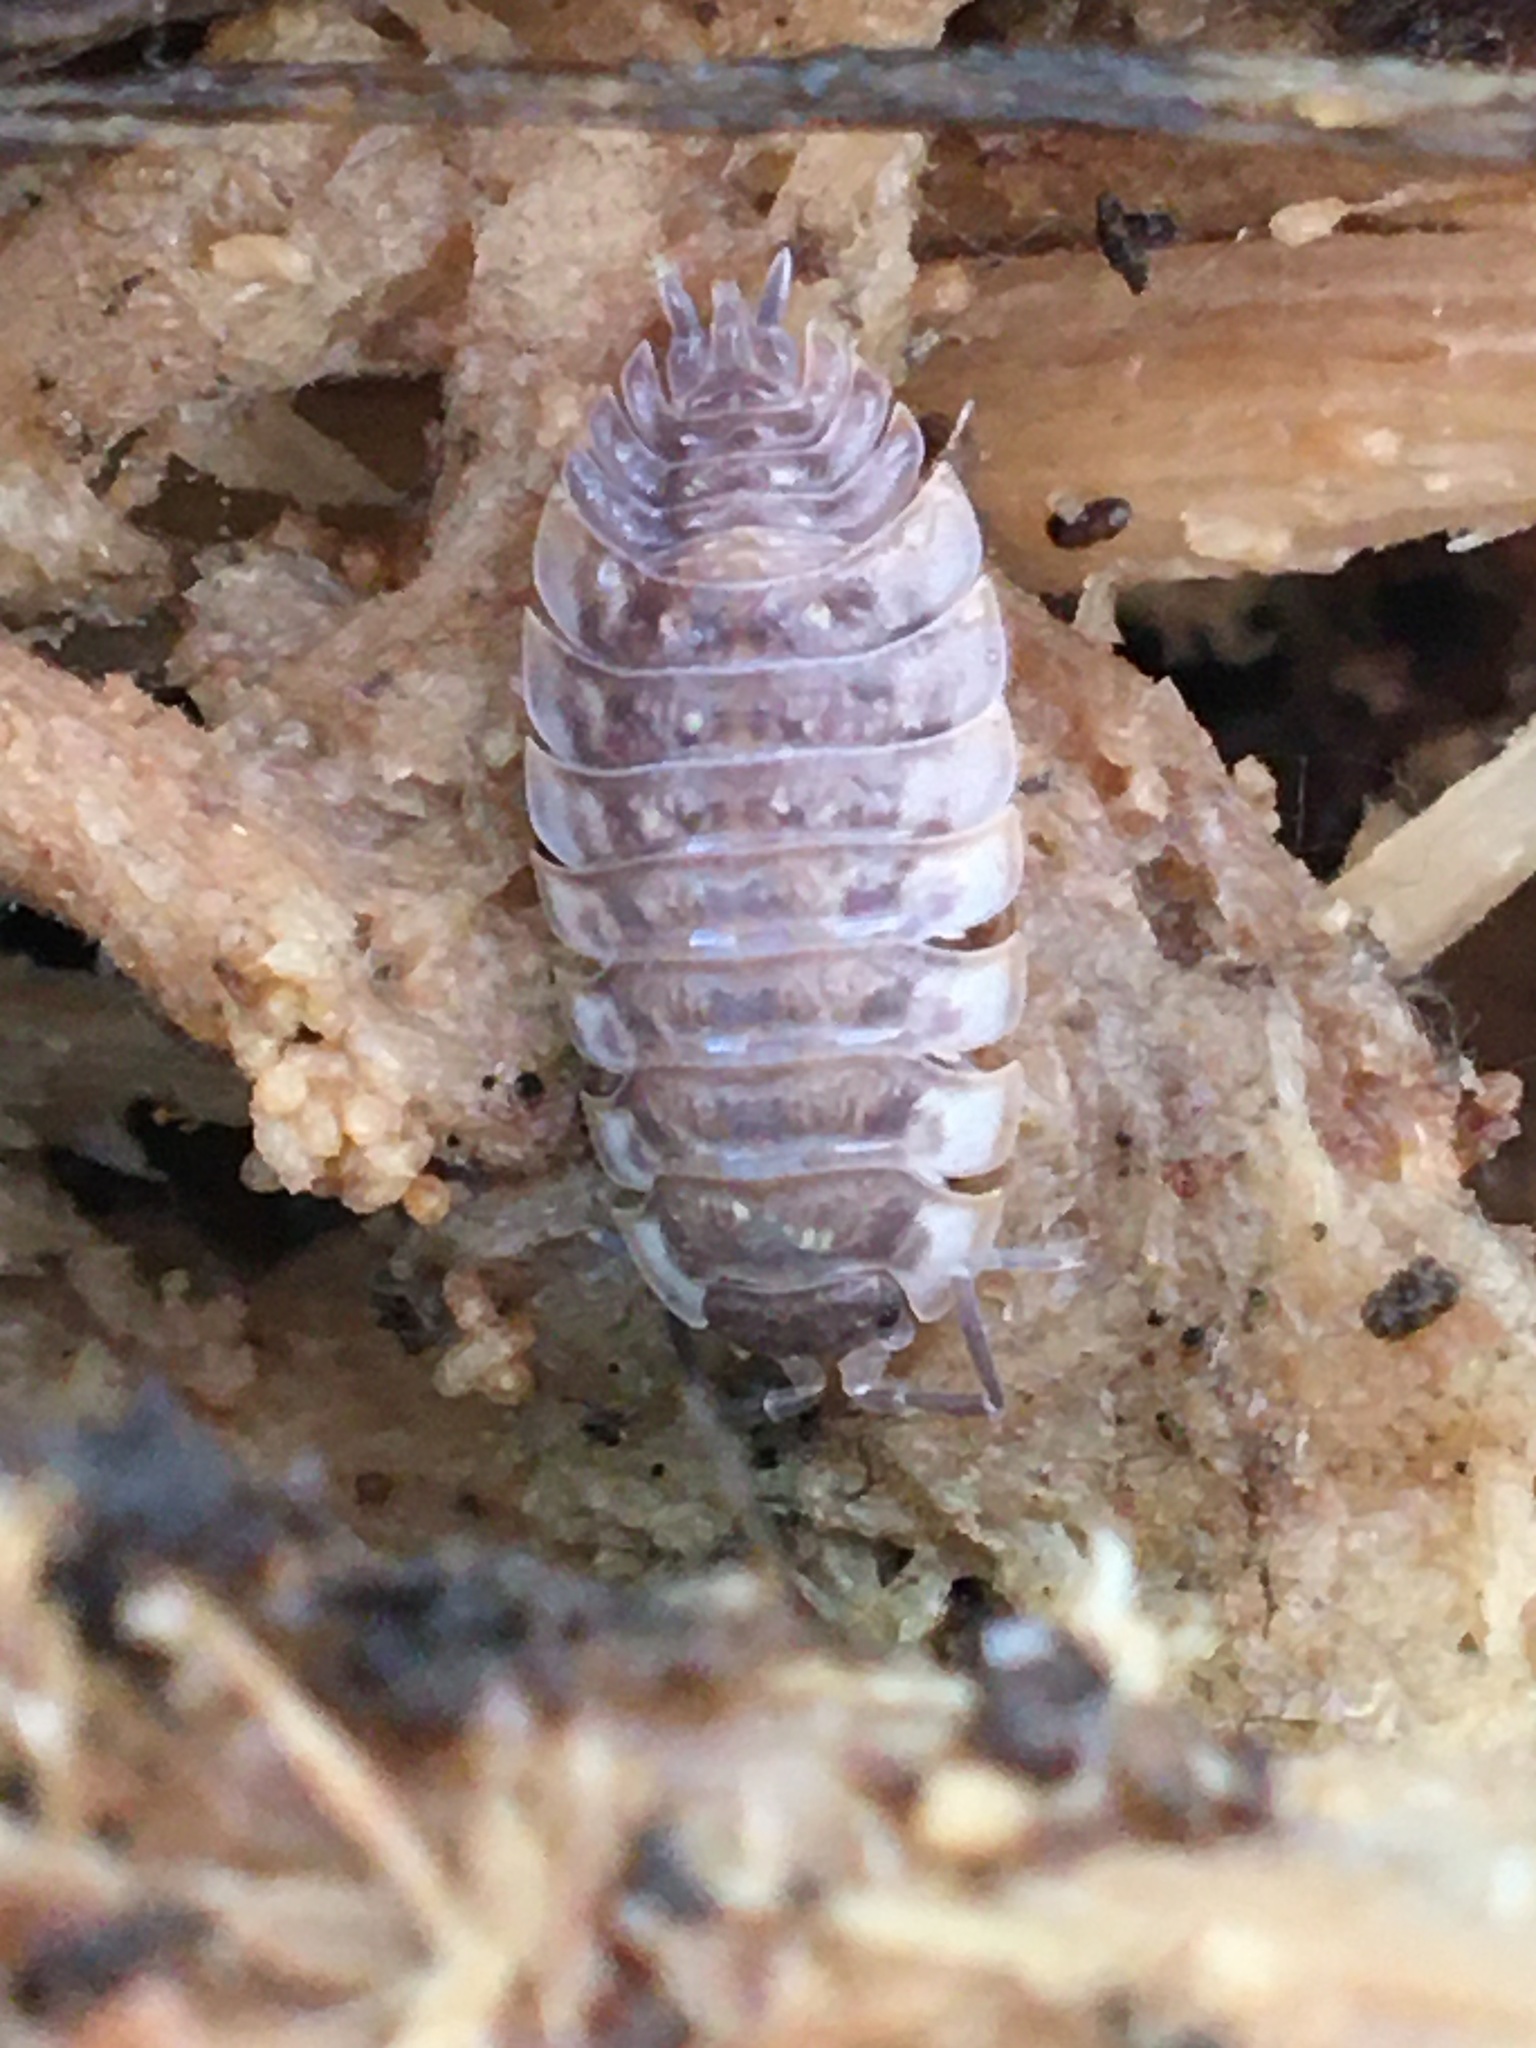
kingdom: Animalia
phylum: Arthropoda
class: Malacostraca
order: Isopoda
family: Oniscidae
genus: Oniscus
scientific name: Oniscus asellus
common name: Common shiny woodlouse
